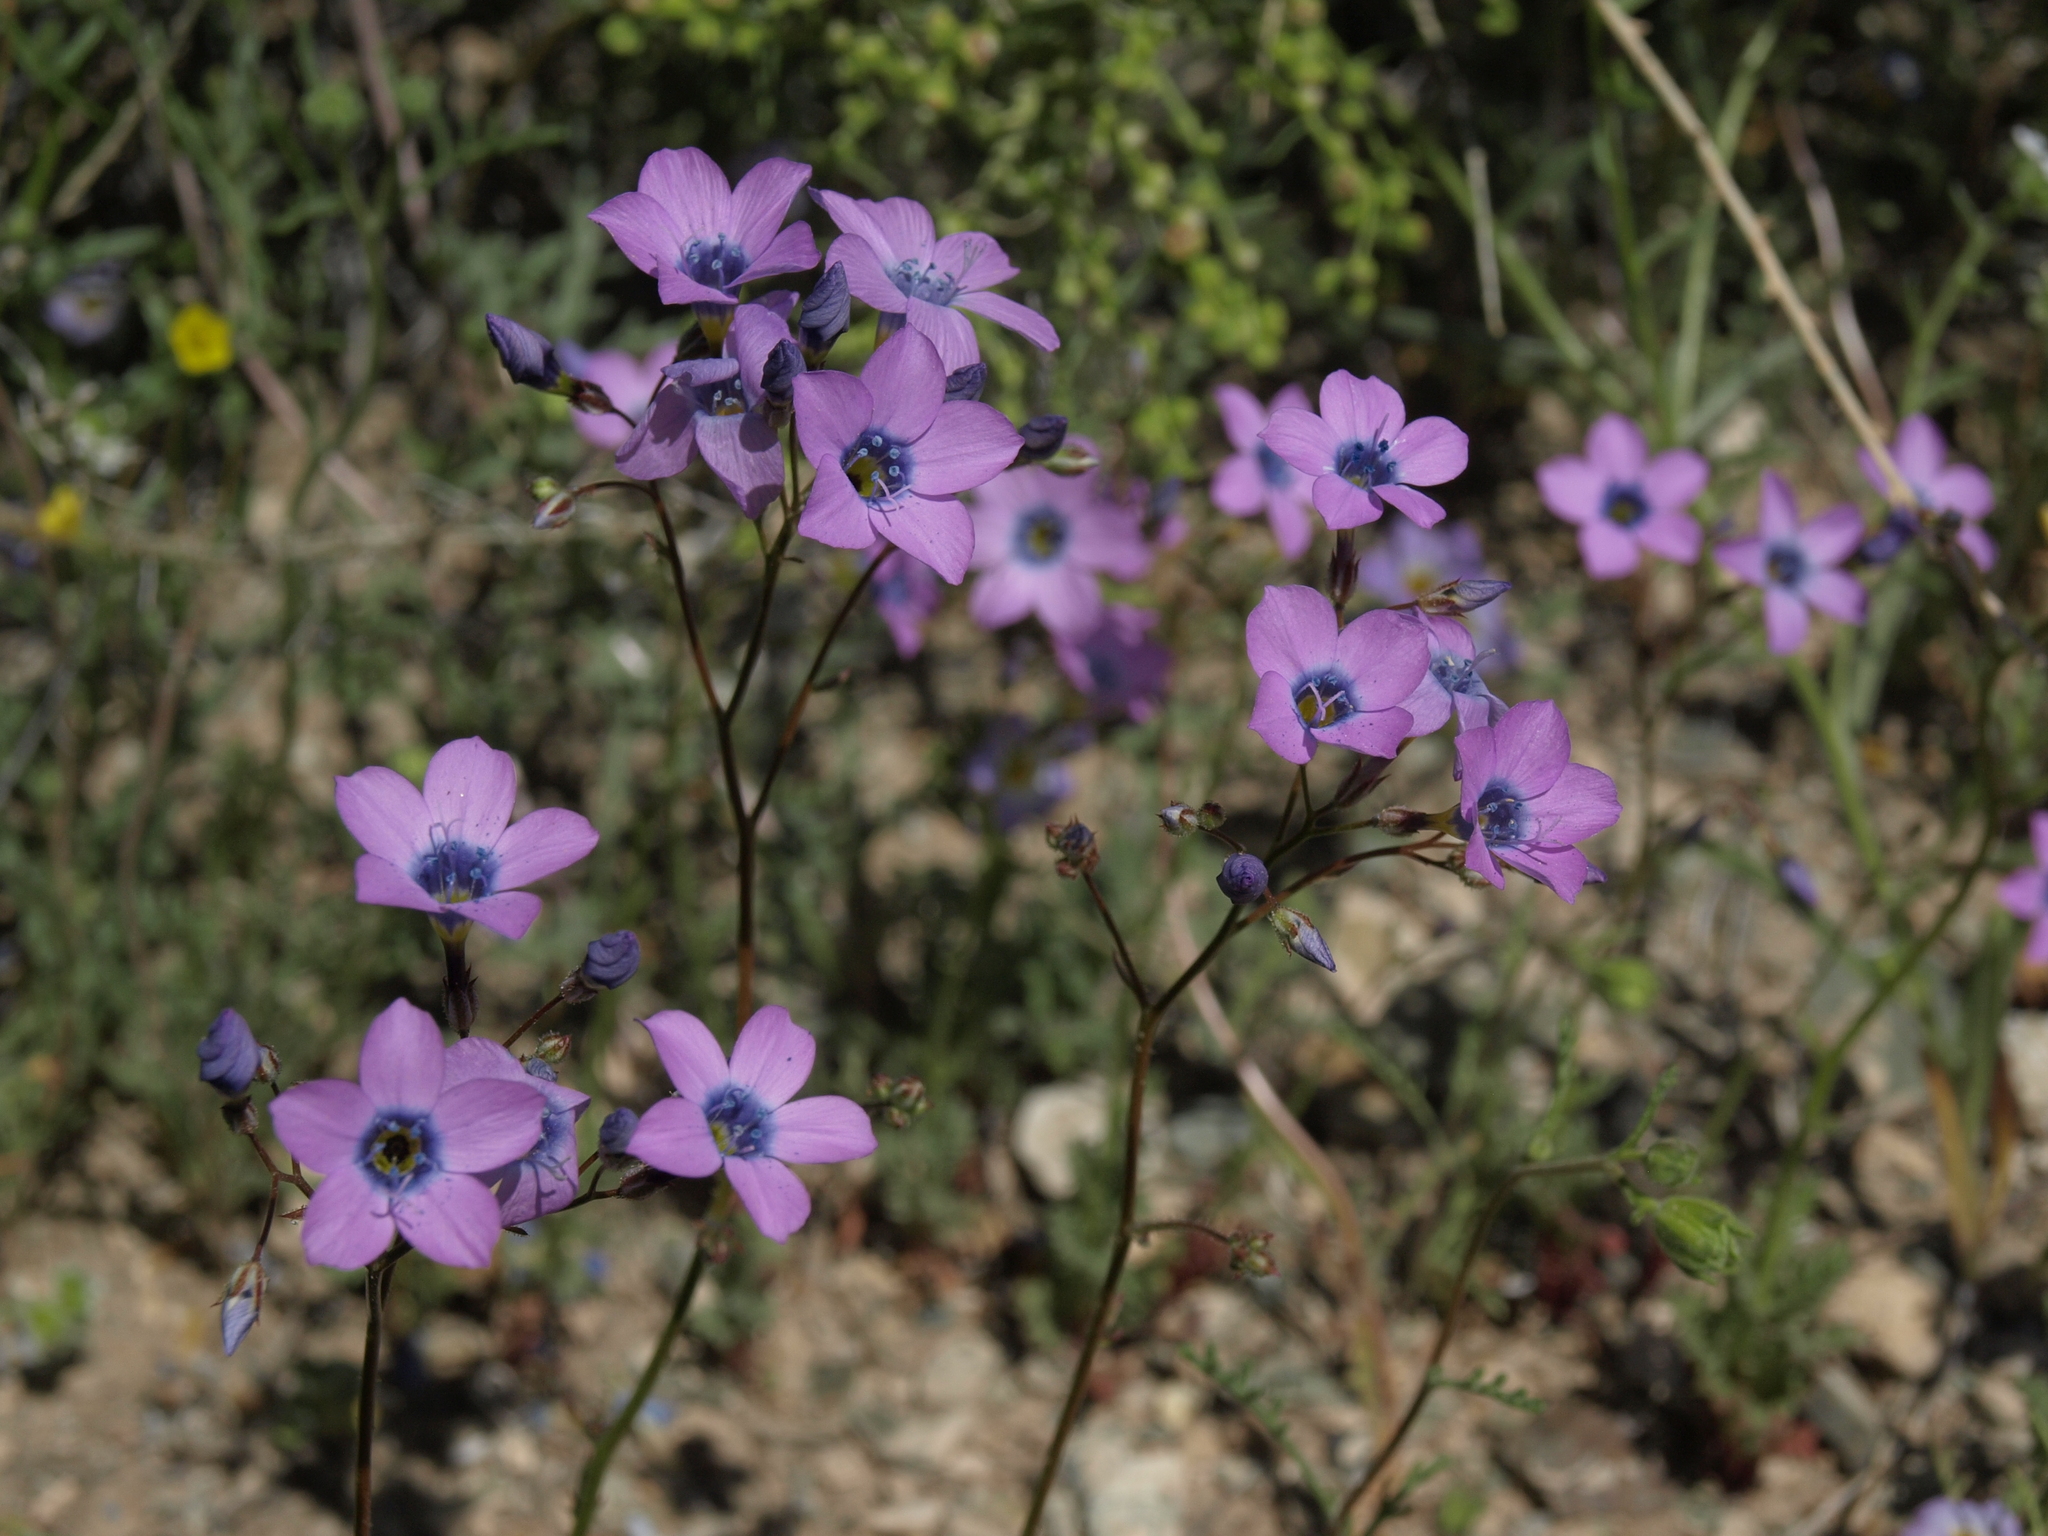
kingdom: Plantae
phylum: Tracheophyta
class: Magnoliopsida
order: Ericales
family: Polemoniaceae
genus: Gilia
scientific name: Gilia cana
